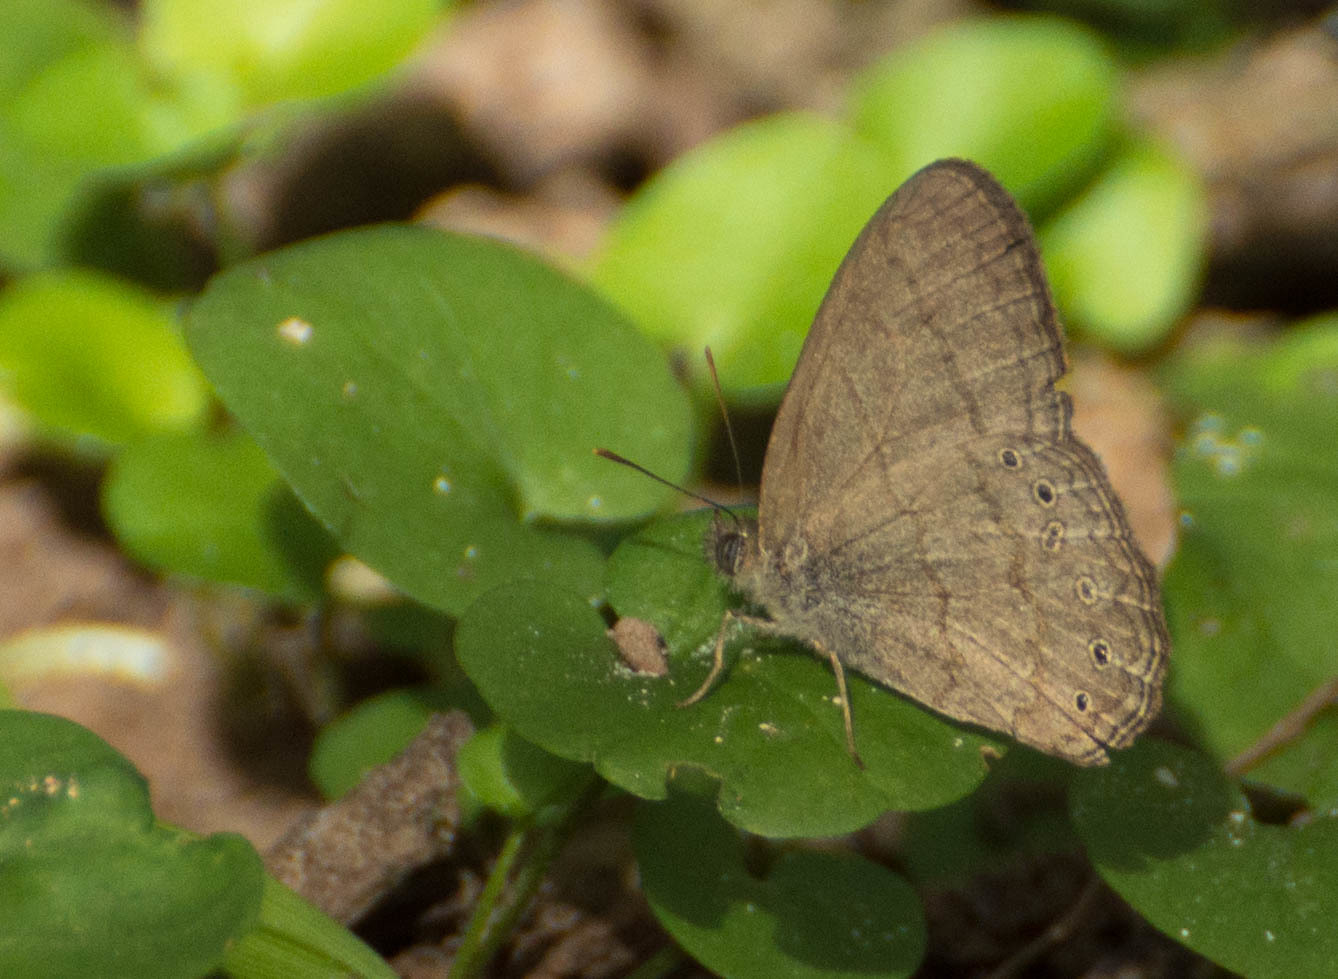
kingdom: Animalia
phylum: Arthropoda
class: Insecta
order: Lepidoptera
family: Nymphalidae
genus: Paryphthimoides
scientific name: Paryphthimoides poltys
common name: Poltys satyr
